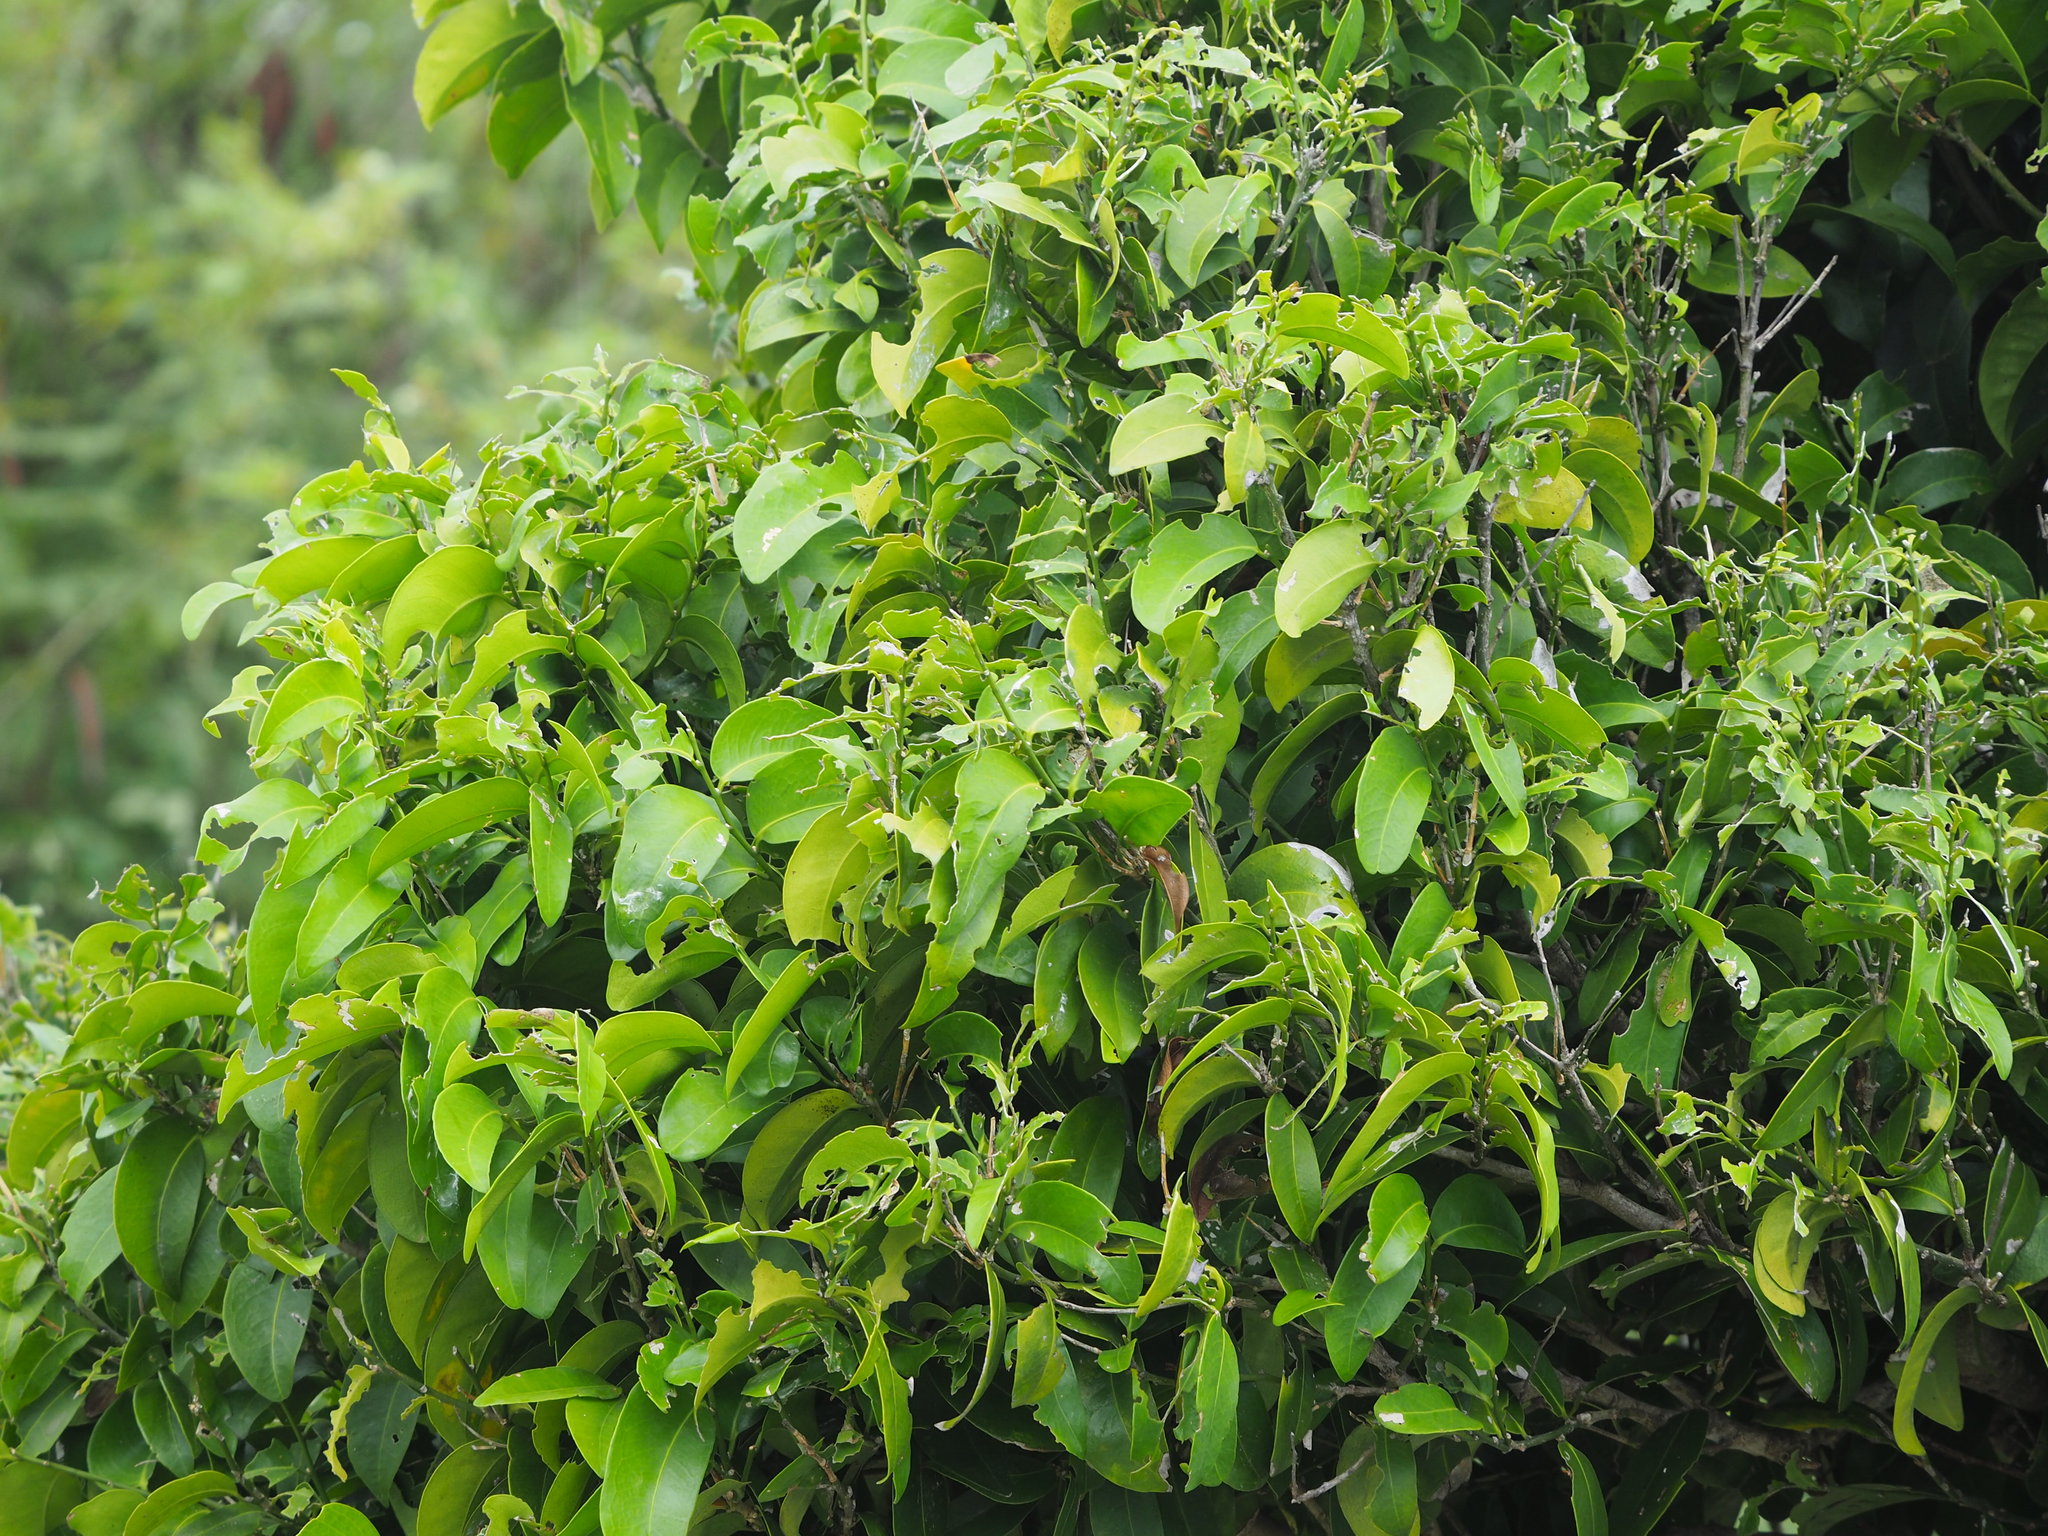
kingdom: Plantae
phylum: Tracheophyta
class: Magnoliopsida
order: Malpighiales
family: Putranjivaceae
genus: Drypetes
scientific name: Drypetes littoralis
